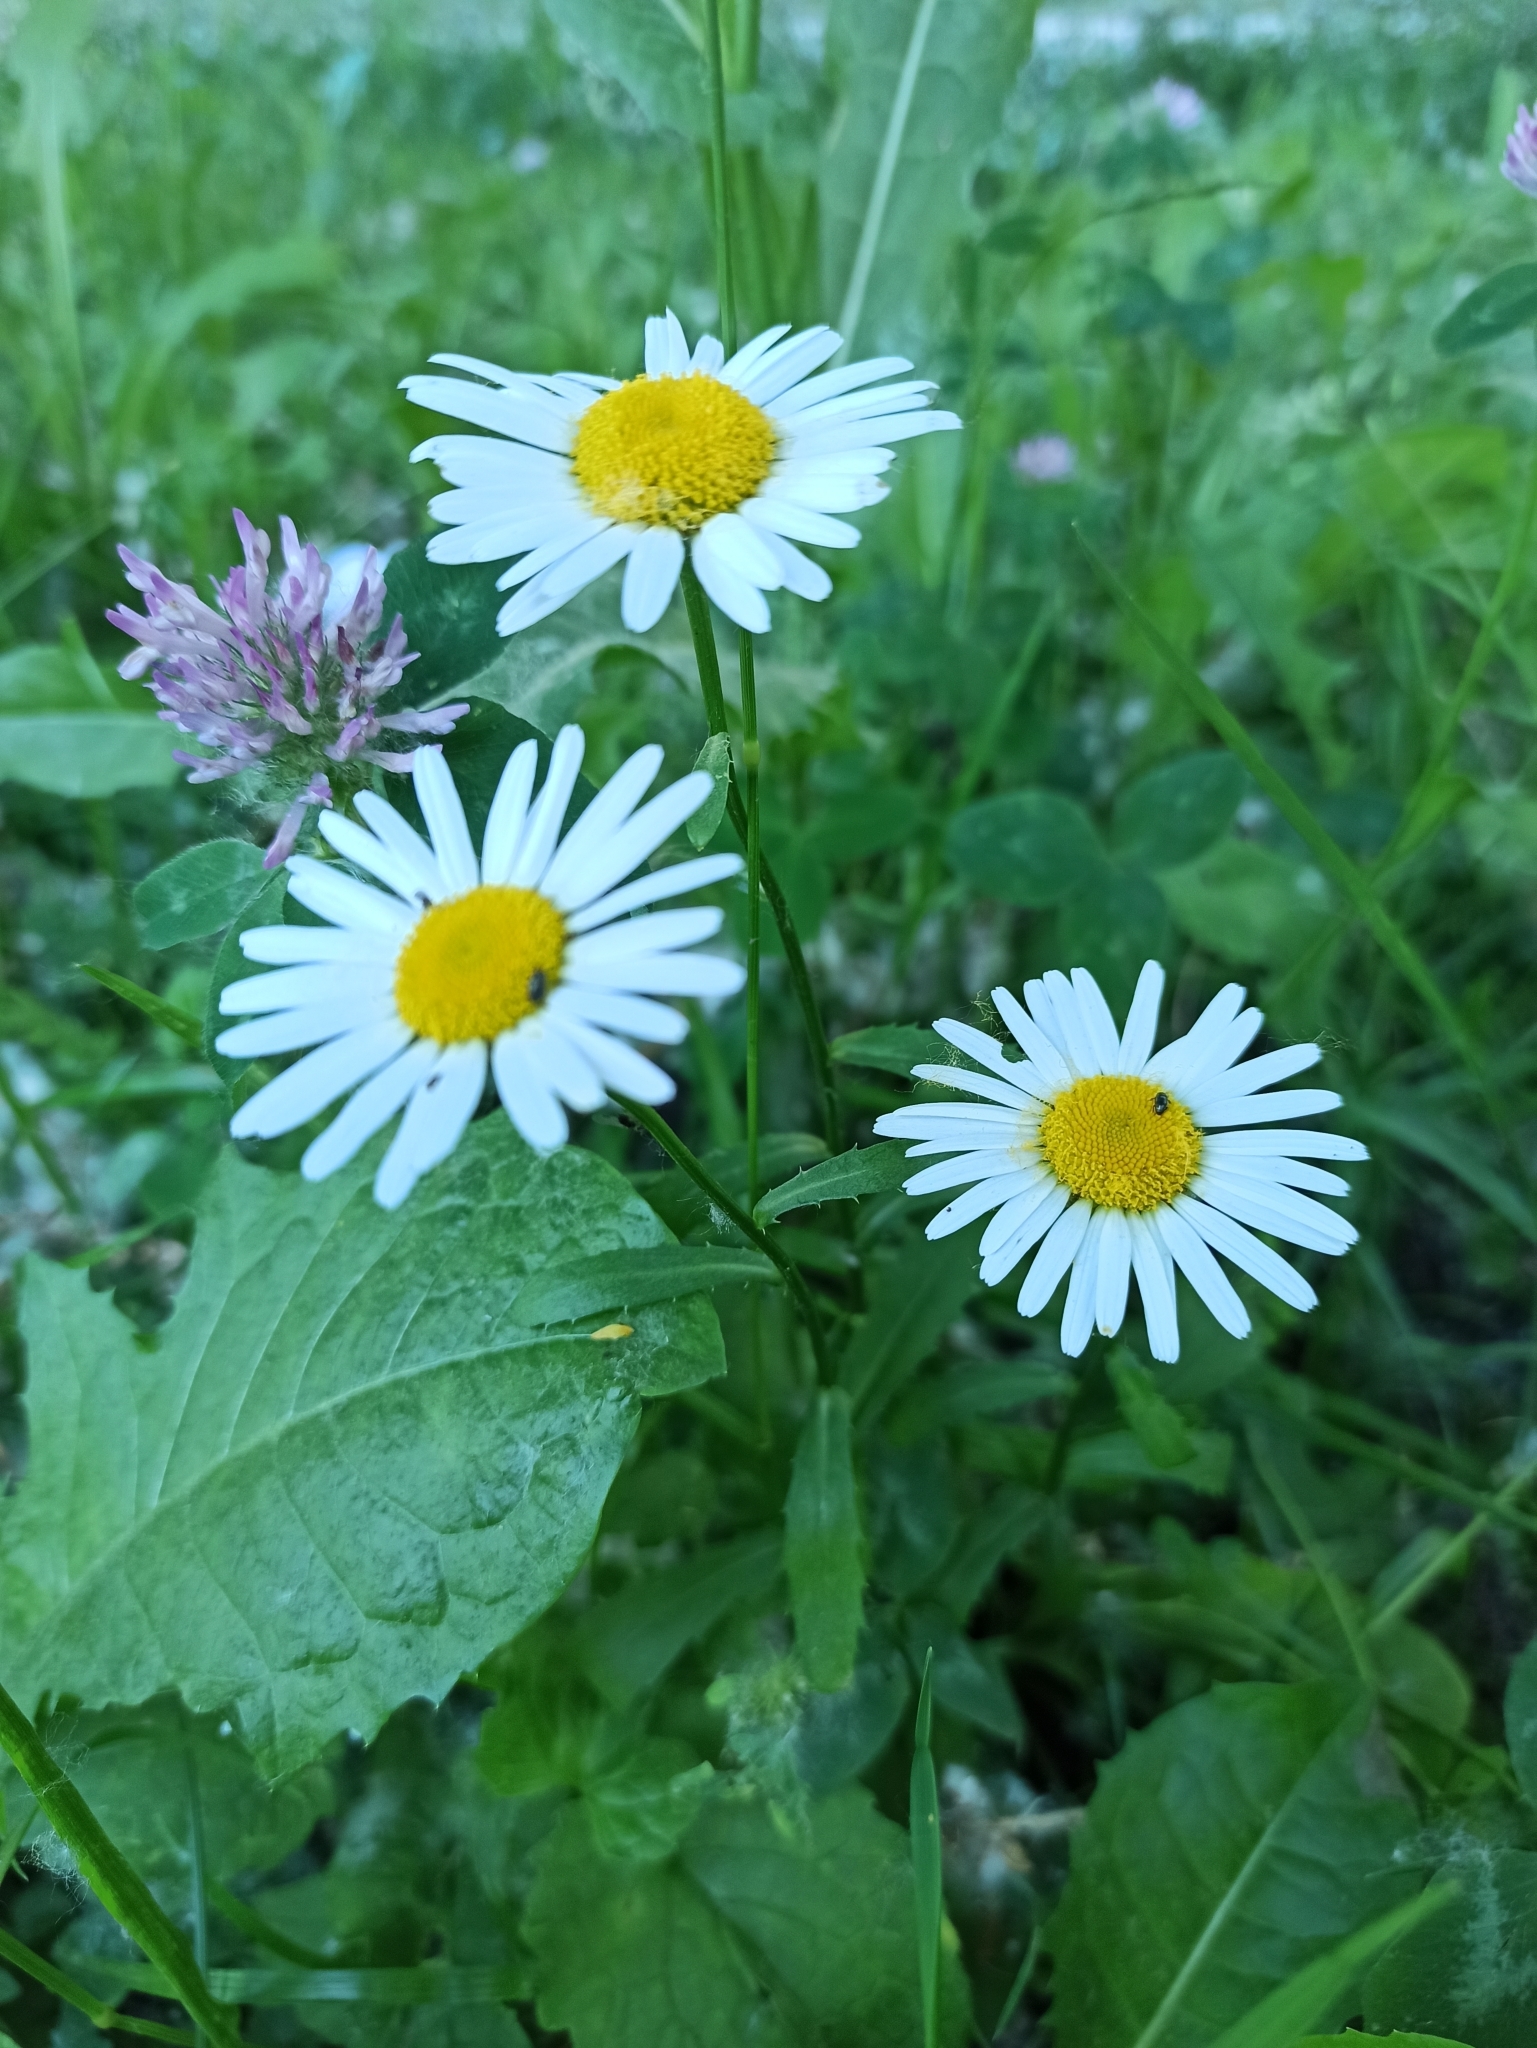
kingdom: Plantae
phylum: Tracheophyta
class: Magnoliopsida
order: Asterales
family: Asteraceae
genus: Leucanthemum
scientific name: Leucanthemum vulgare
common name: Oxeye daisy
